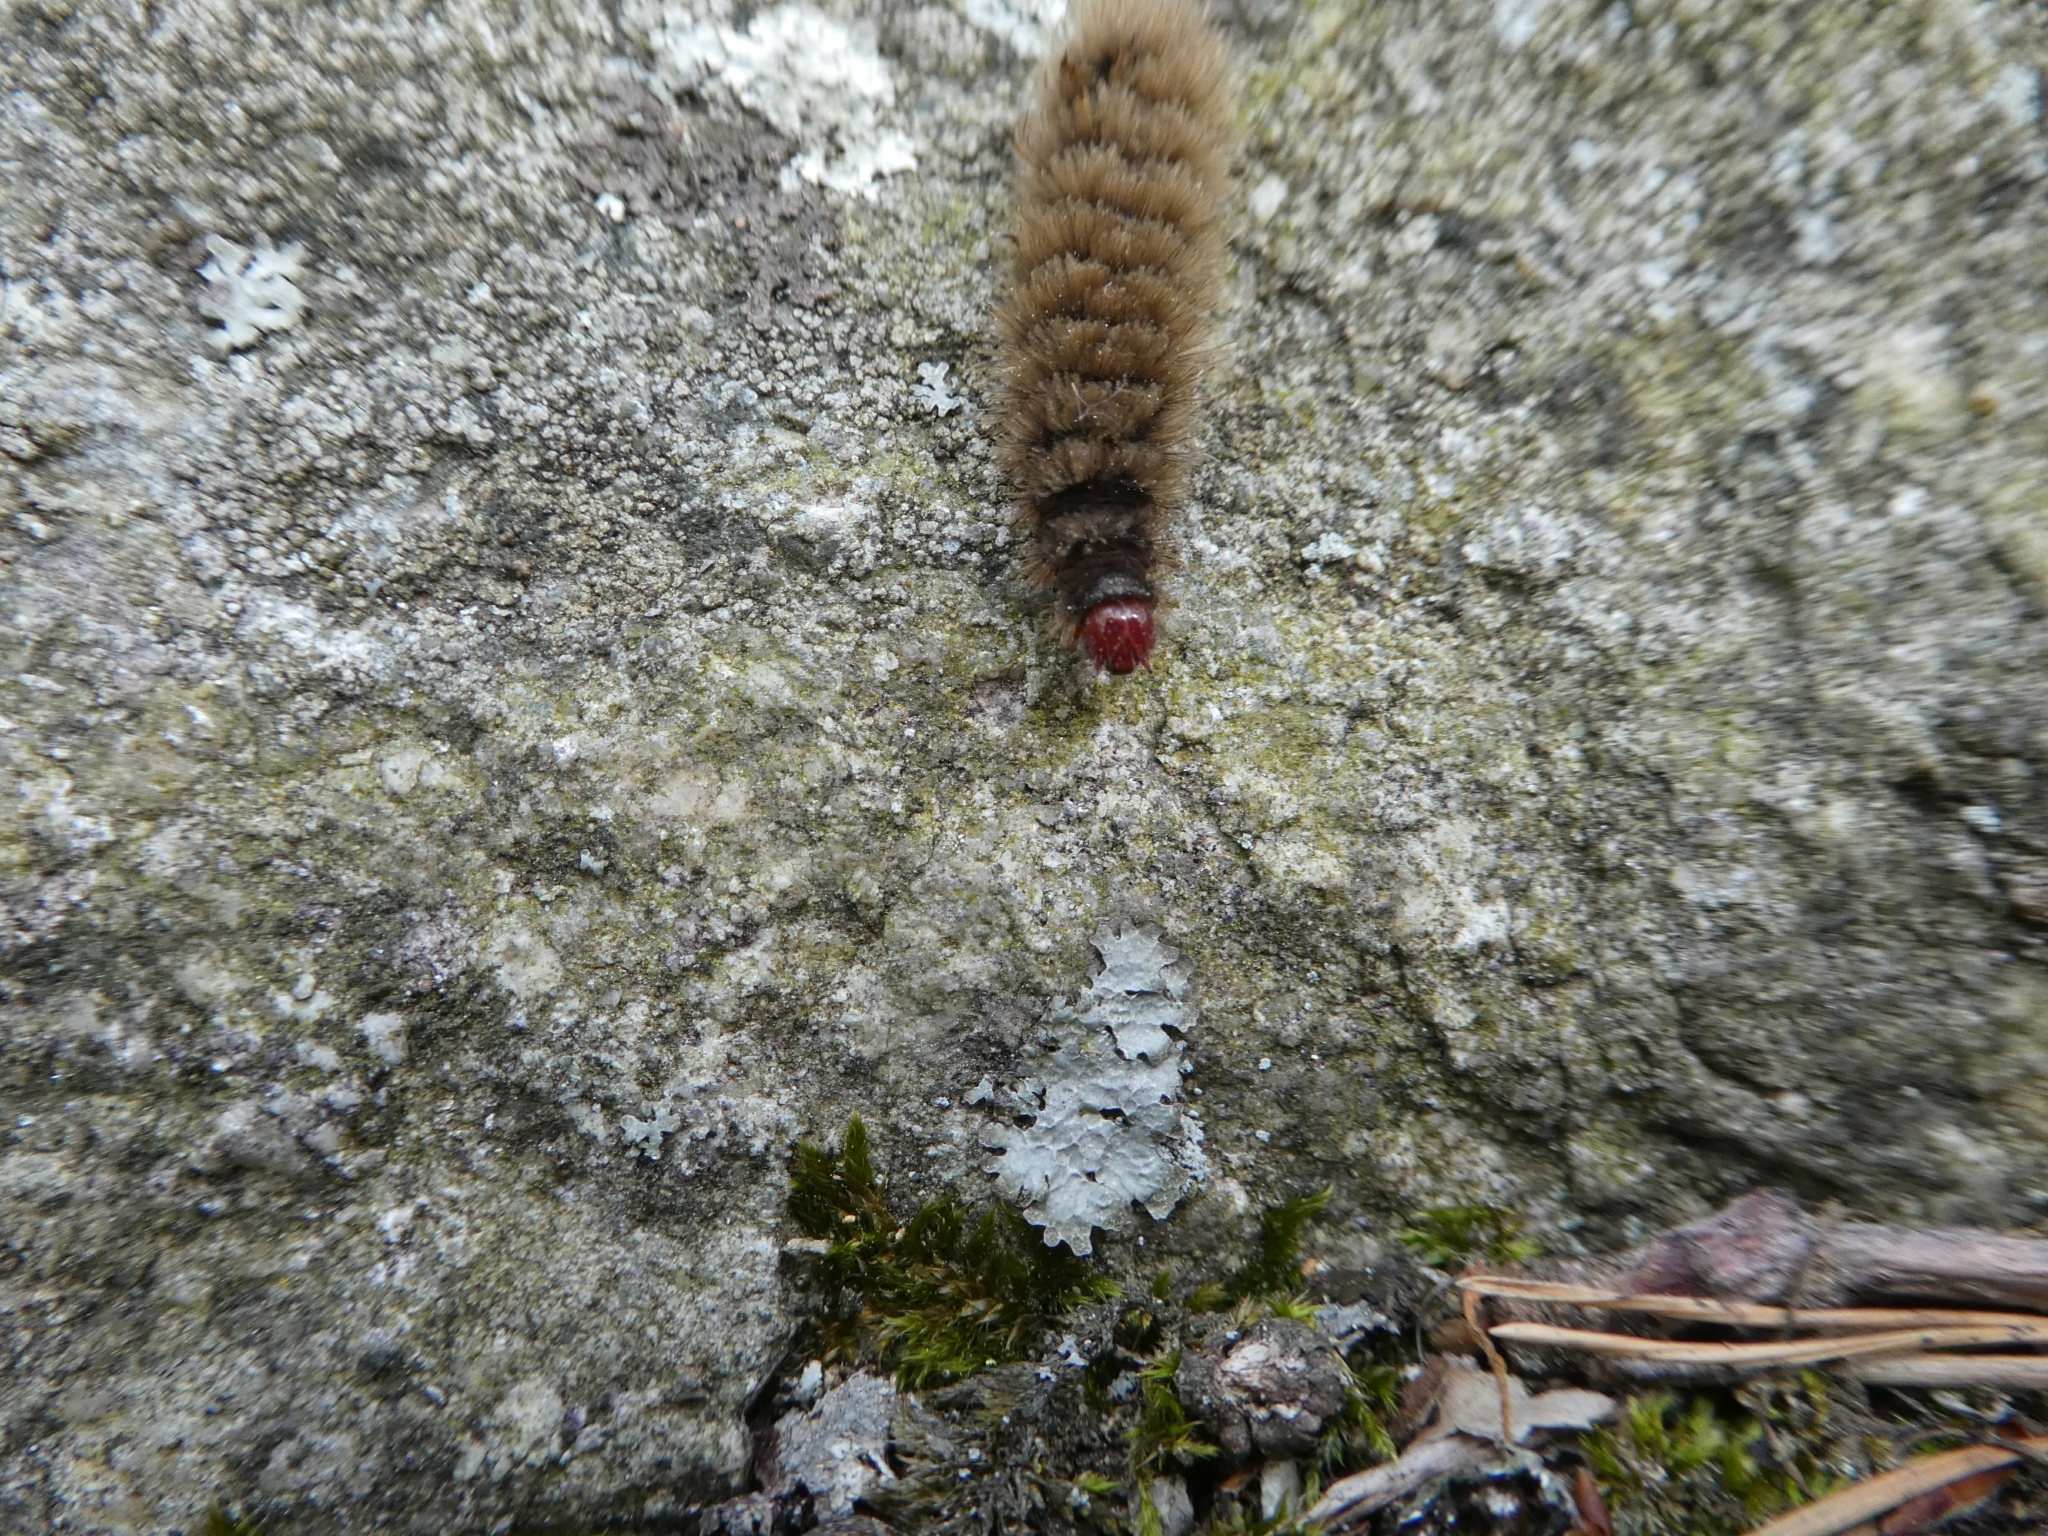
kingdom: Animalia
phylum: Arthropoda
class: Insecta
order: Lepidoptera
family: Erebidae
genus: Amata
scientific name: Amata phegea
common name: Nine-spotted
